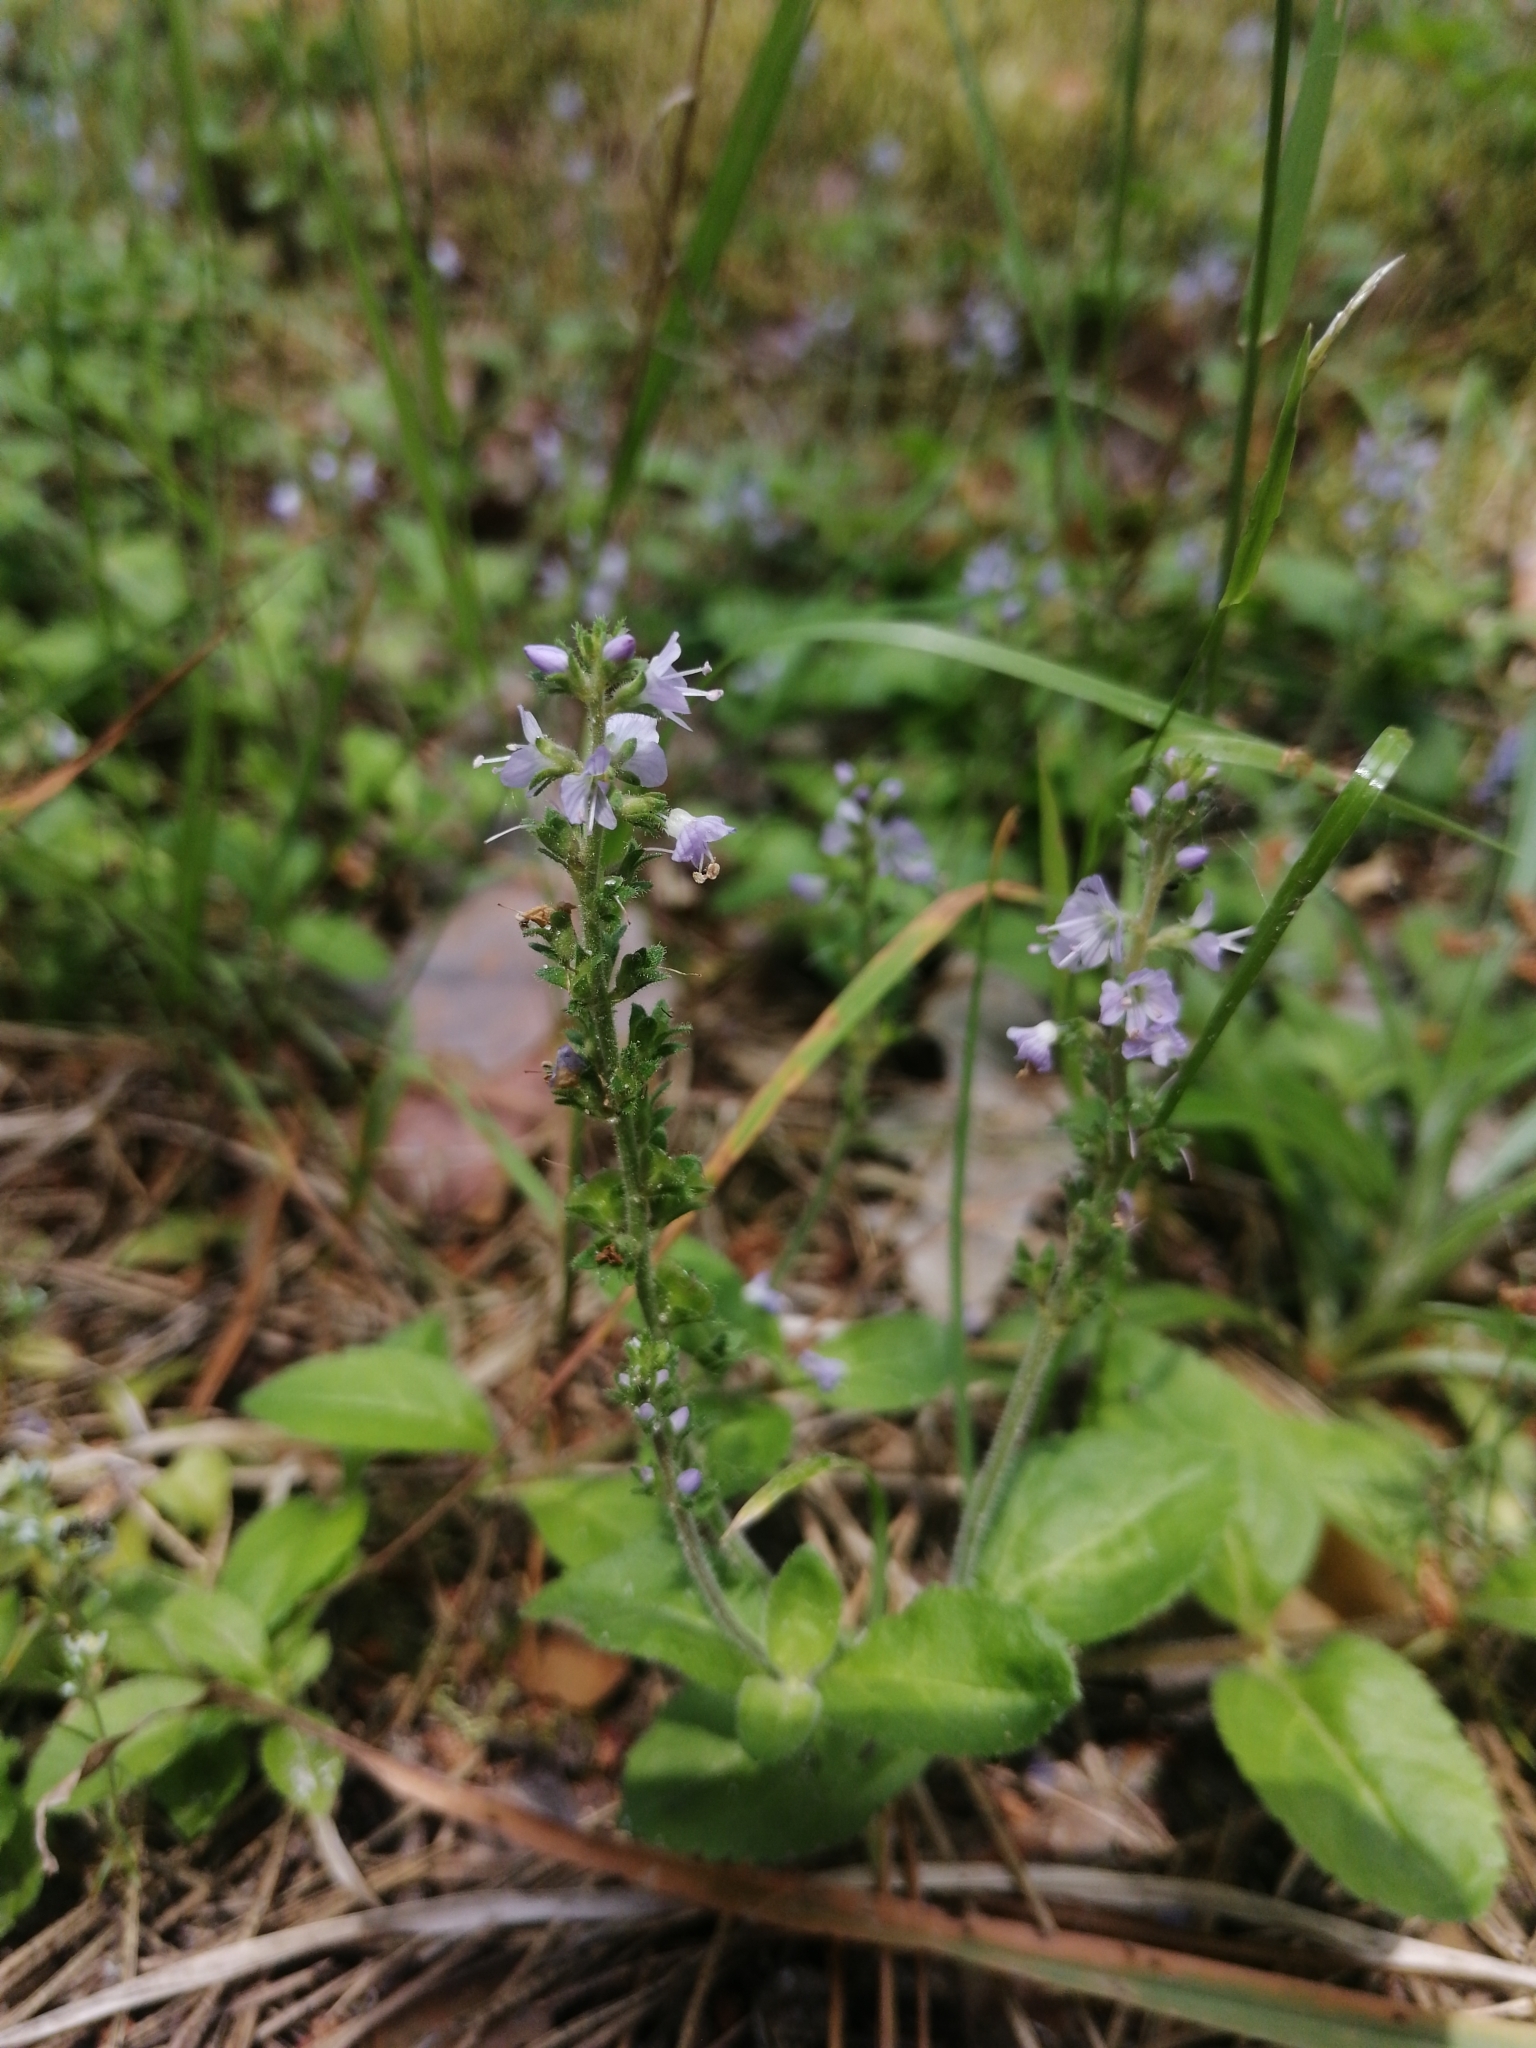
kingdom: Plantae
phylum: Tracheophyta
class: Magnoliopsida
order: Lamiales
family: Plantaginaceae
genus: Veronica
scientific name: Veronica officinalis
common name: Common speedwell
